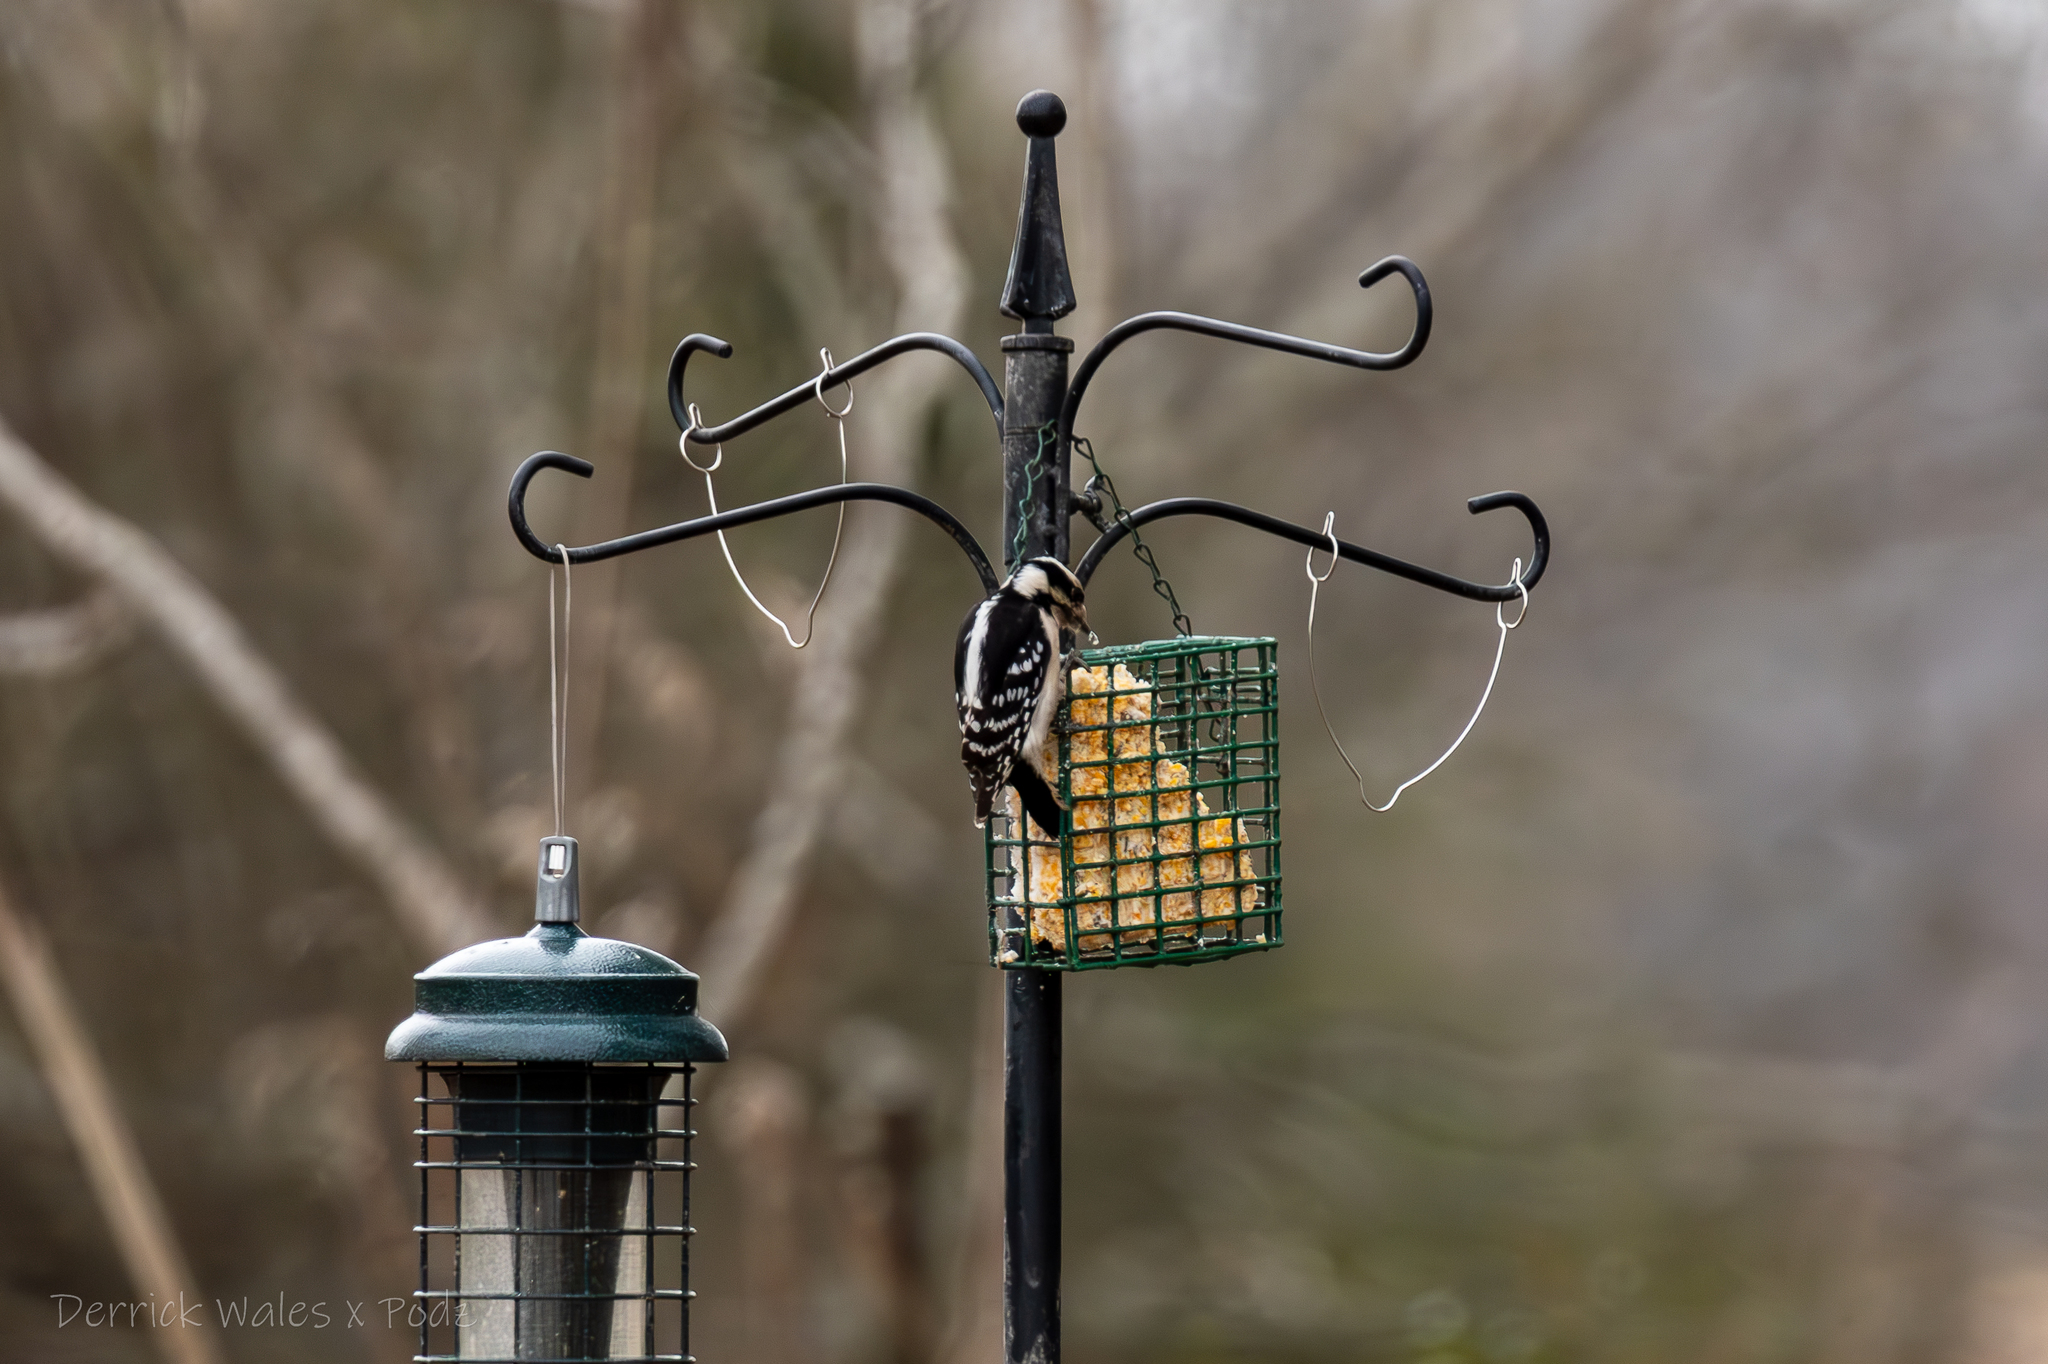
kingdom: Animalia
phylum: Chordata
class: Aves
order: Piciformes
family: Picidae
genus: Dryobates
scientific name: Dryobates pubescens
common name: Downy woodpecker
